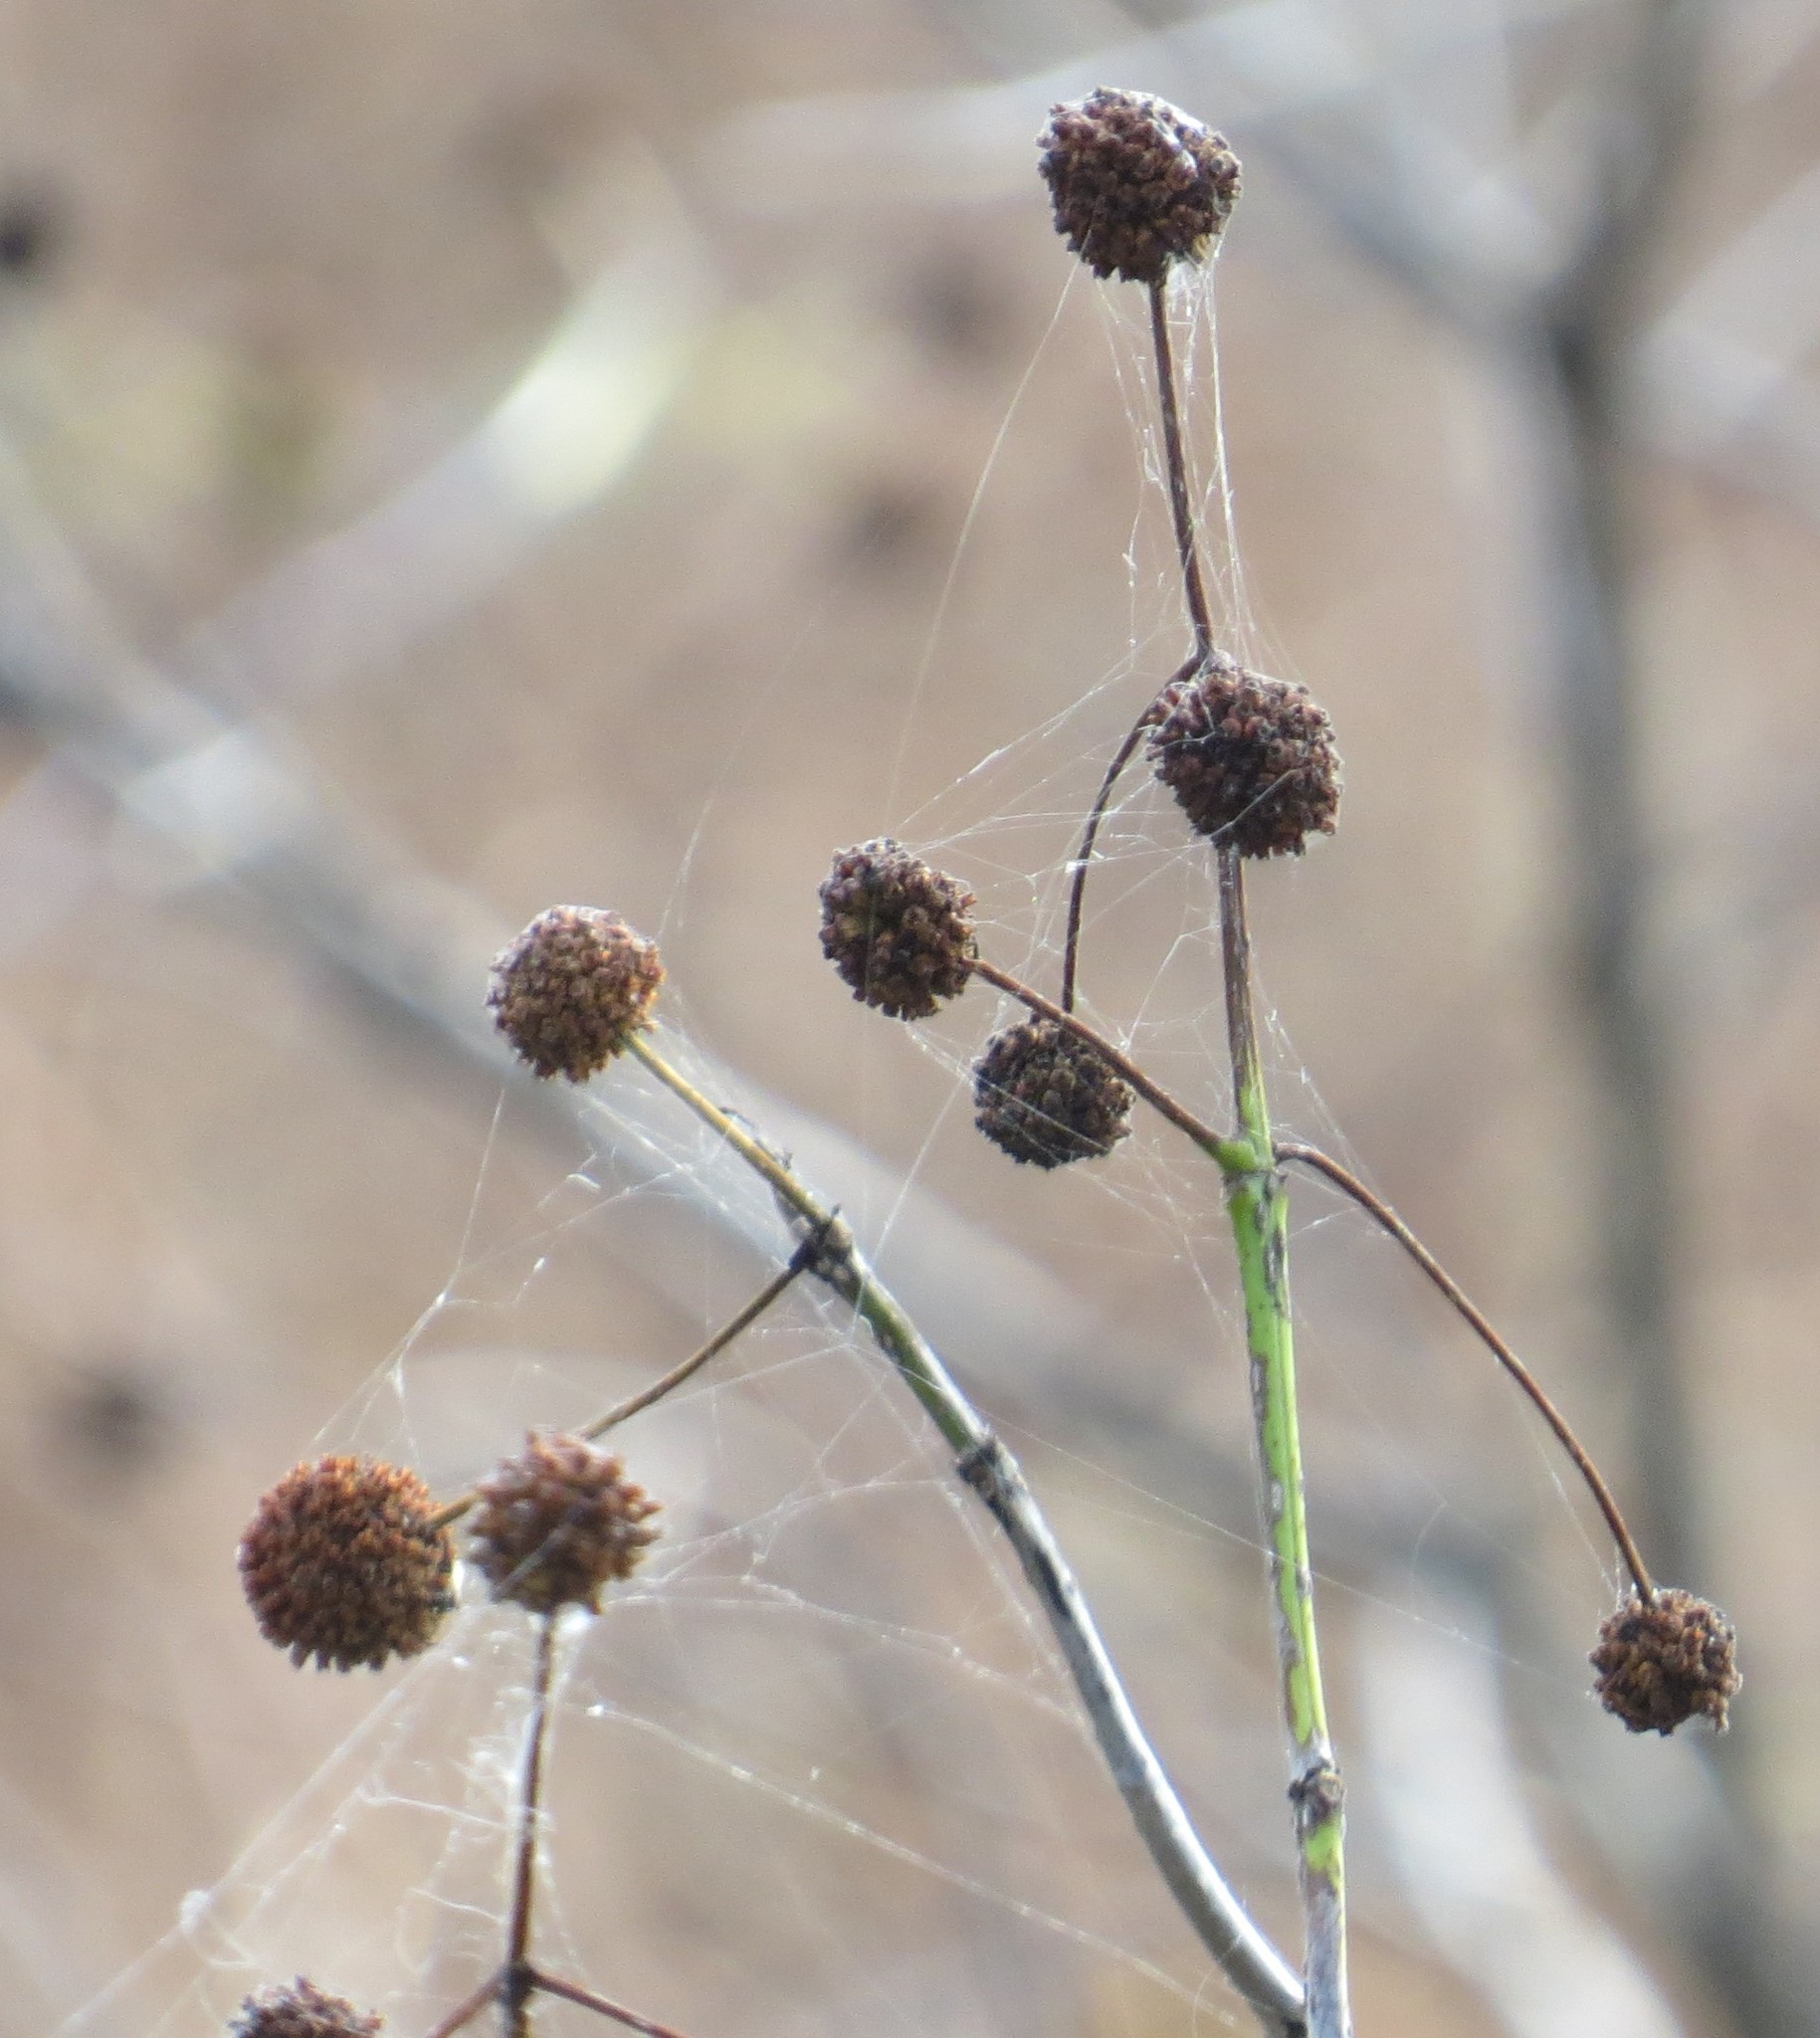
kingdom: Plantae
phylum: Tracheophyta
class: Magnoliopsida
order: Gentianales
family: Rubiaceae
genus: Cephalanthus
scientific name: Cephalanthus occidentalis
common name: Button-willow
